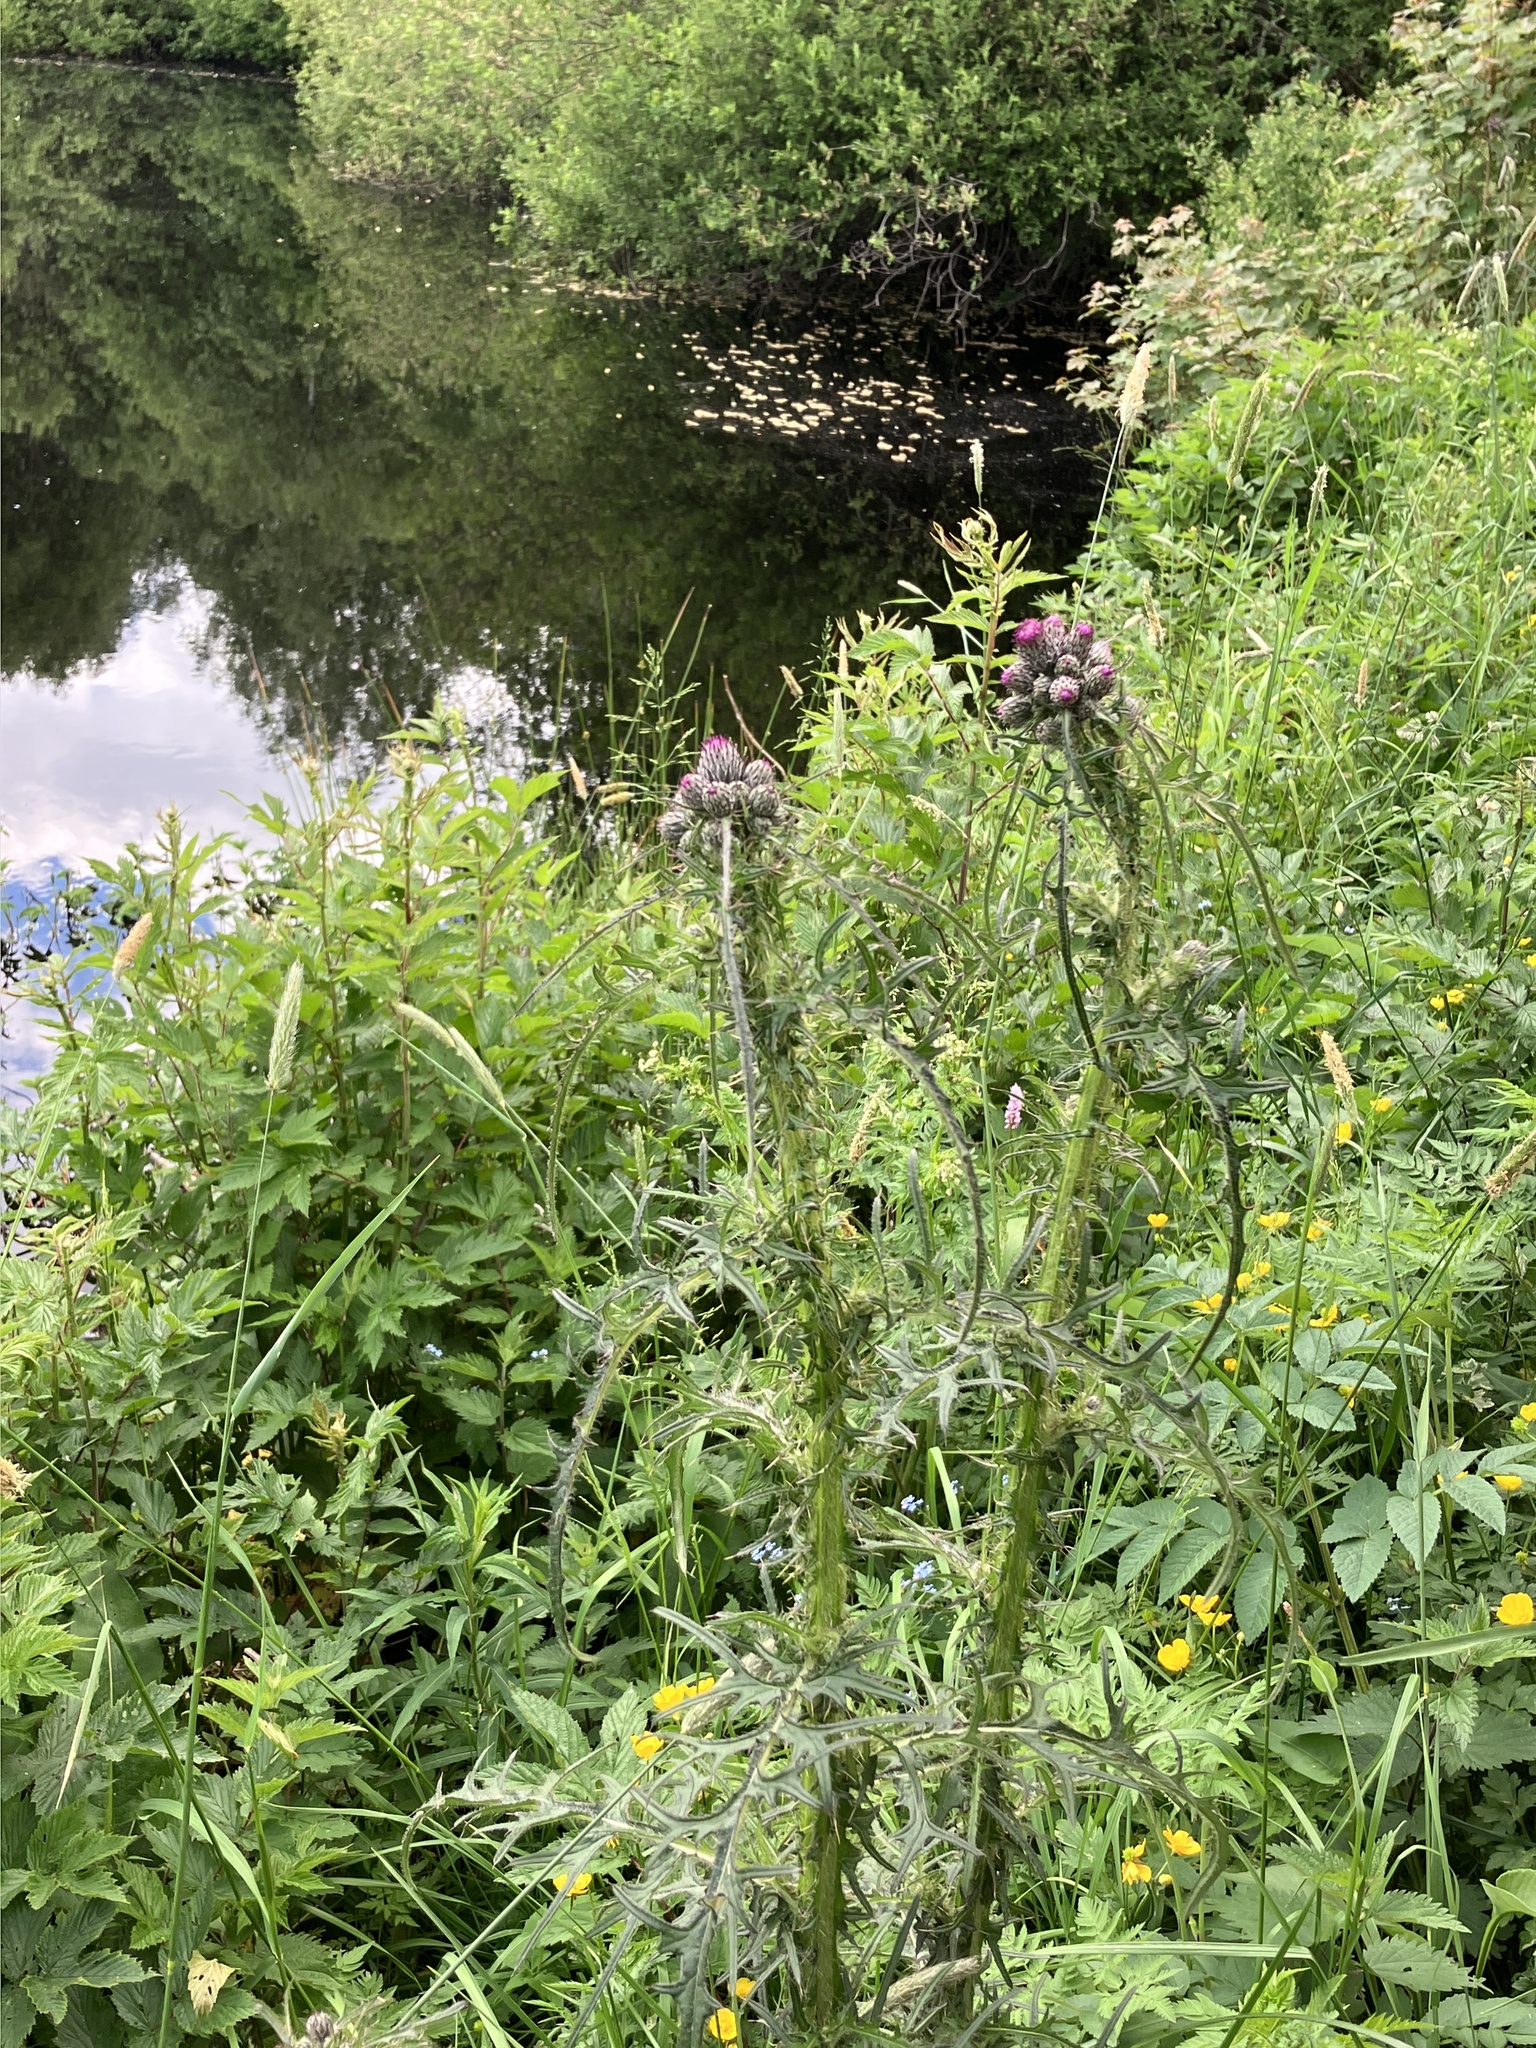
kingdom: Plantae
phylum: Tracheophyta
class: Magnoliopsida
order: Asterales
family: Asteraceae
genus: Cirsium
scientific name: Cirsium palustre
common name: Marsh thistle
